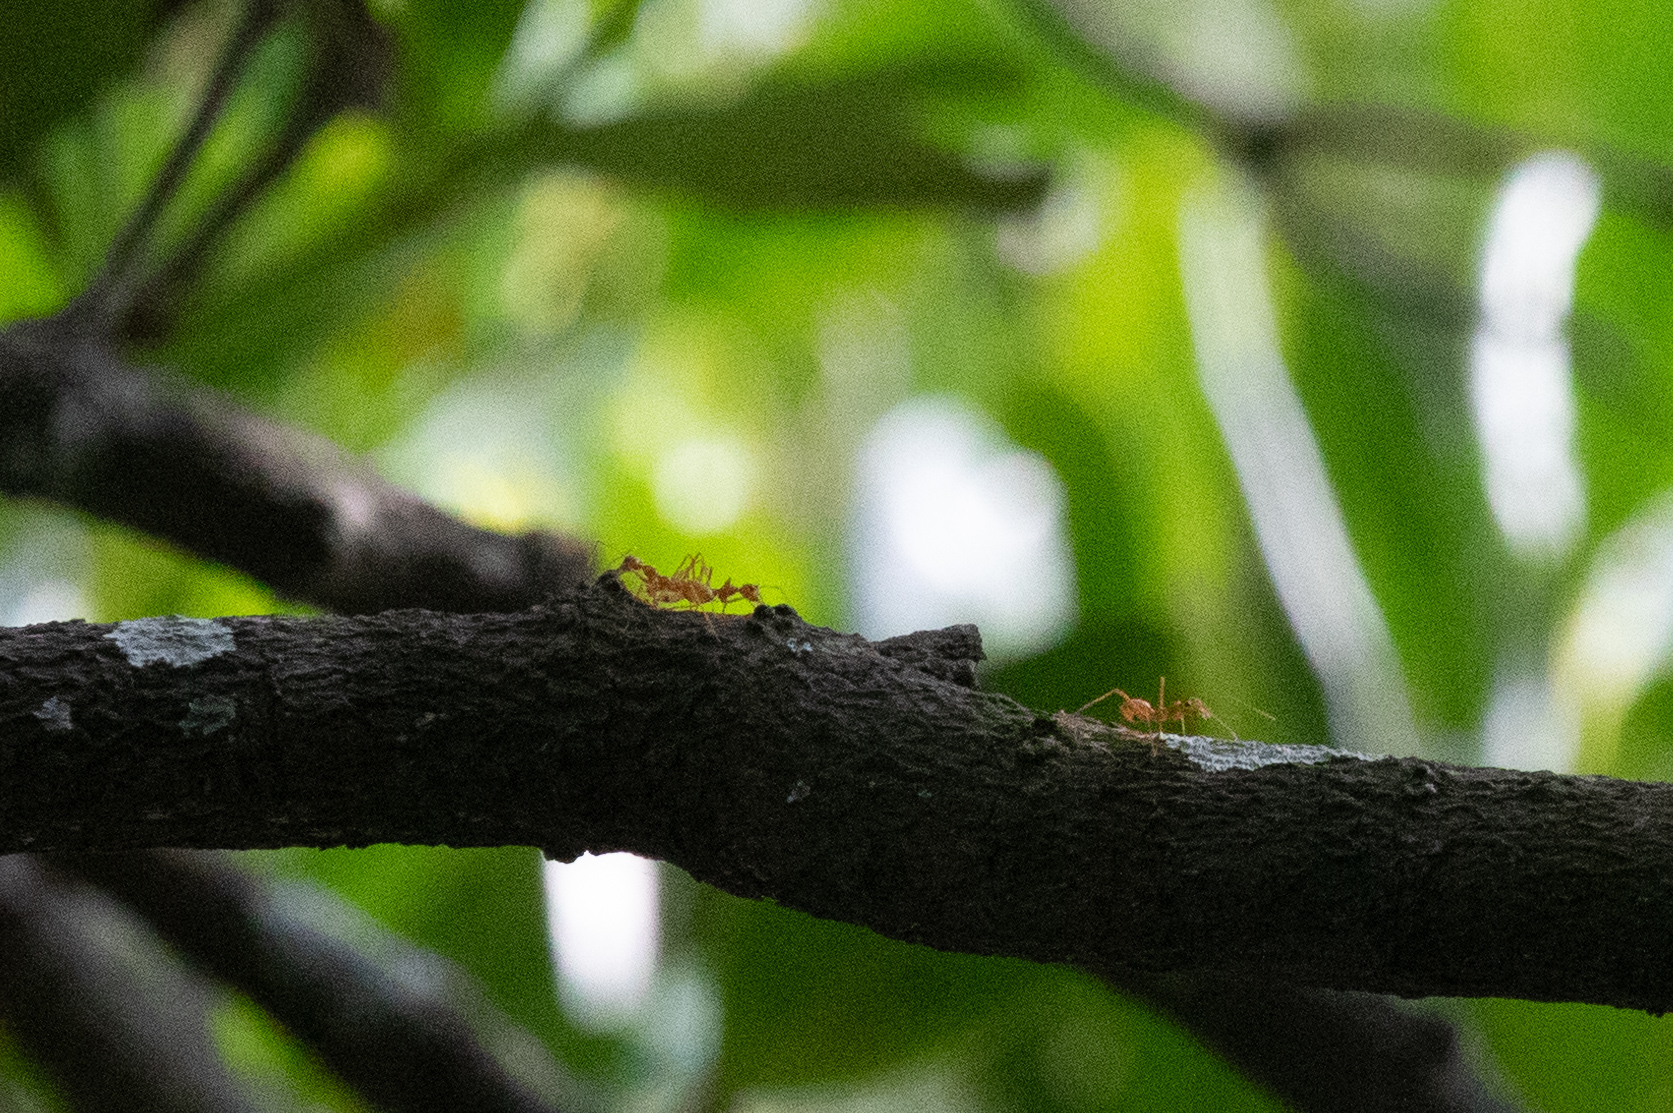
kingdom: Animalia
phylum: Arthropoda
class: Insecta
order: Hymenoptera
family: Formicidae
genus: Oecophylla
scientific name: Oecophylla smaragdina
